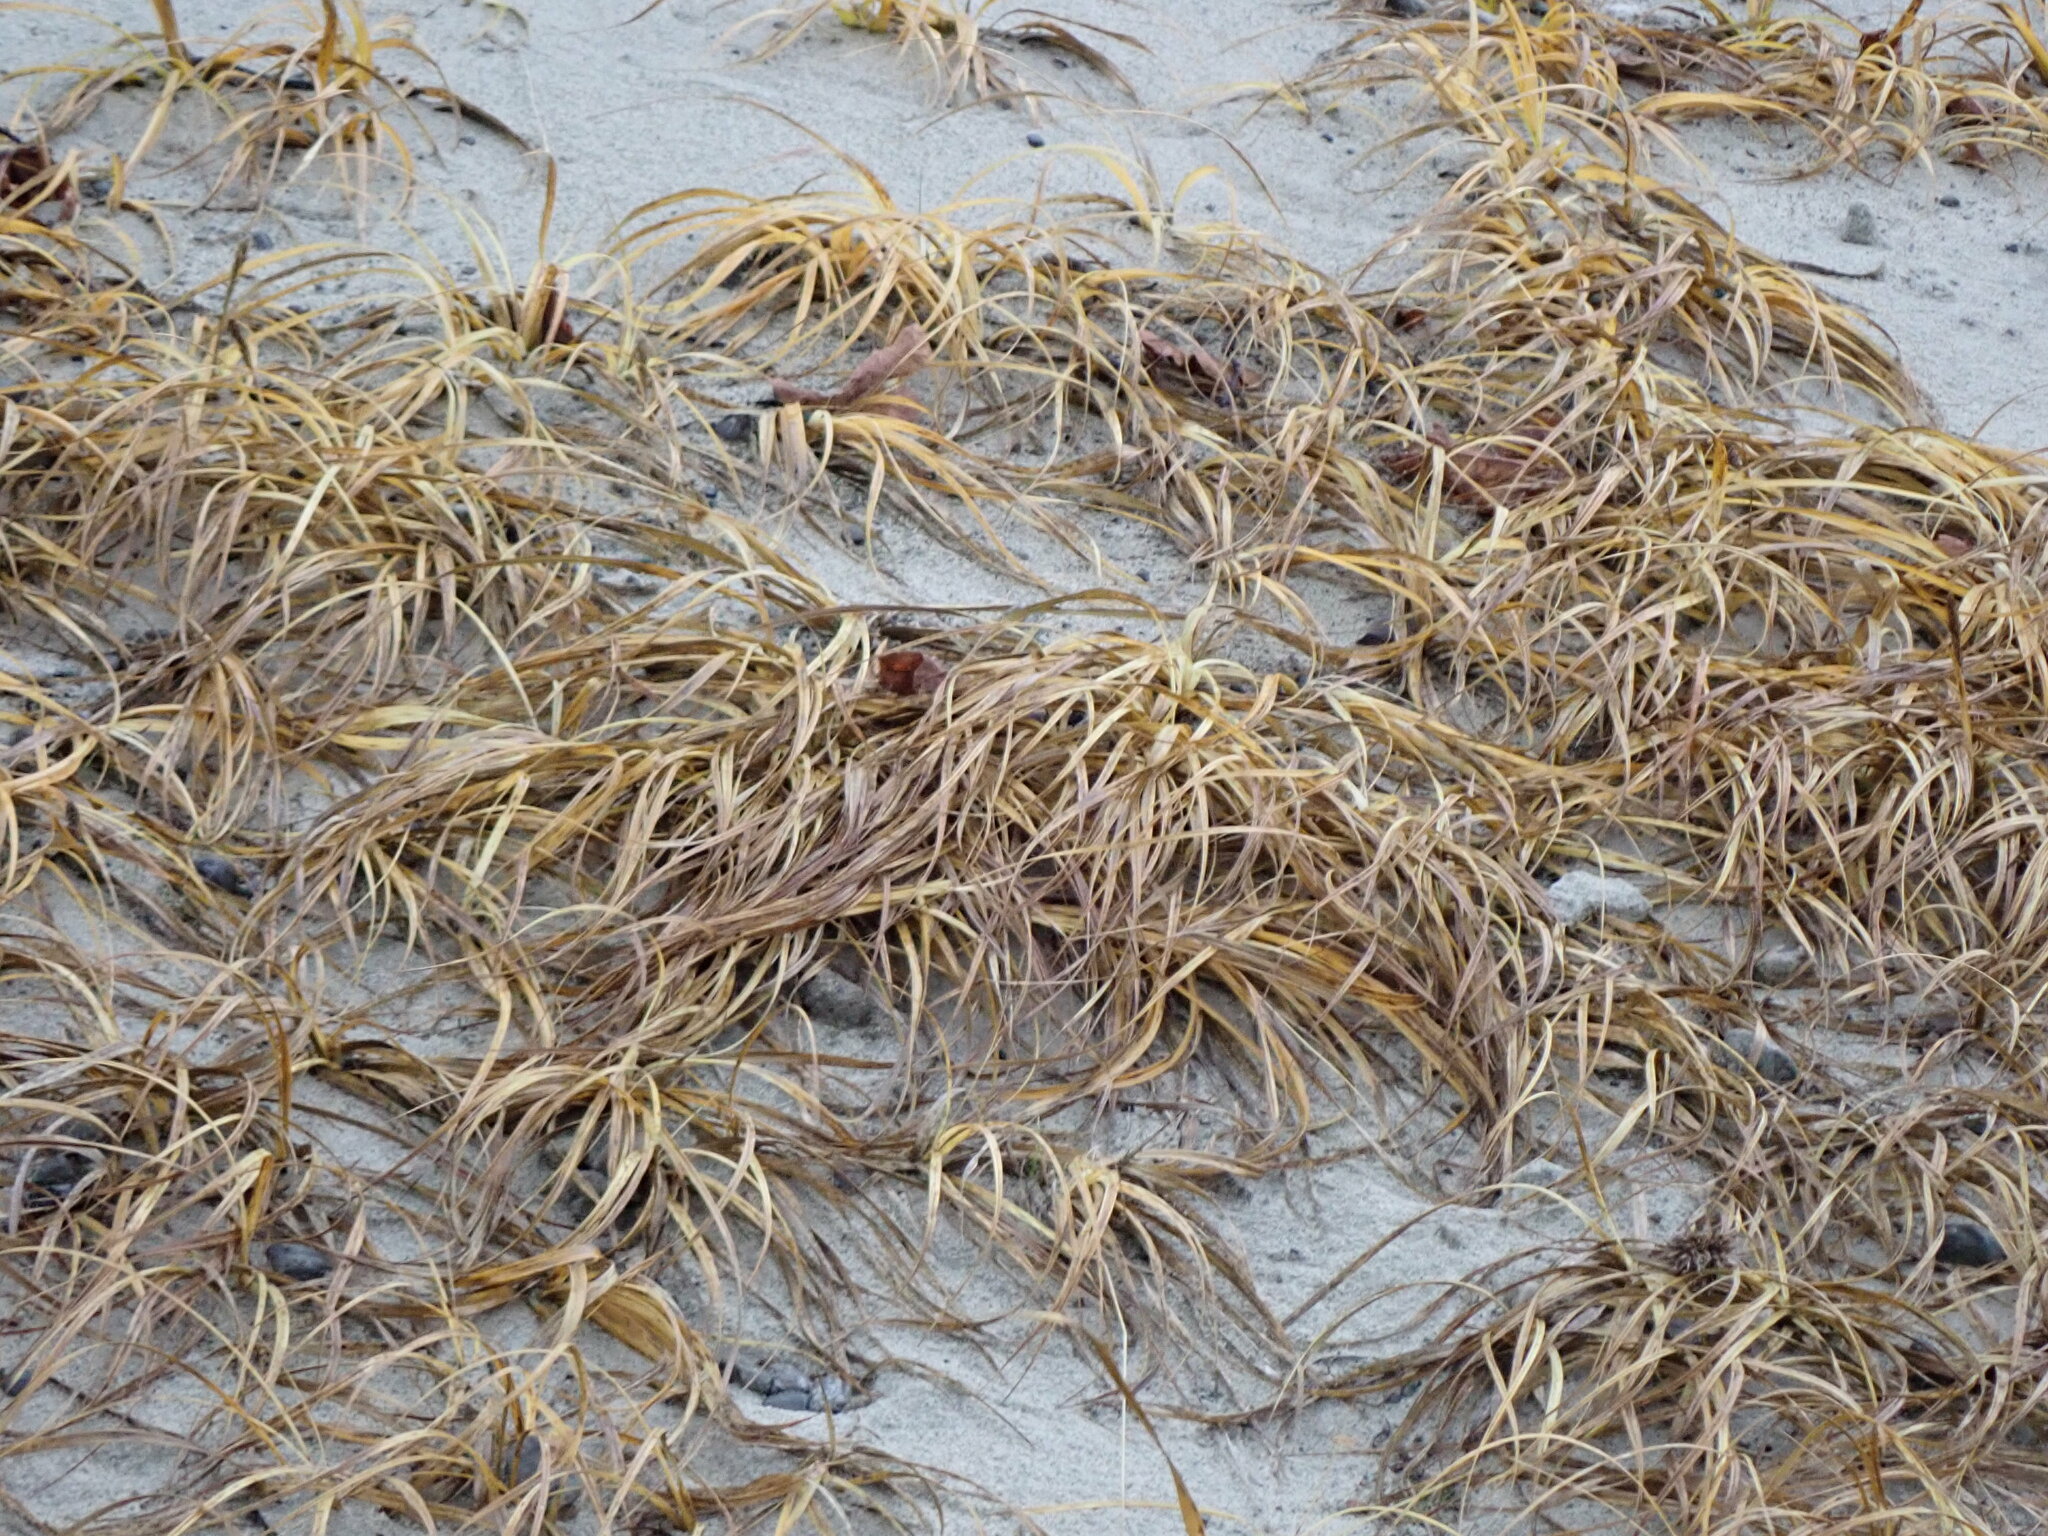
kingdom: Plantae
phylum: Tracheophyta
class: Liliopsida
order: Poales
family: Cyperaceae
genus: Carex
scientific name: Carex macrocephala
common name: Large-head sedge
